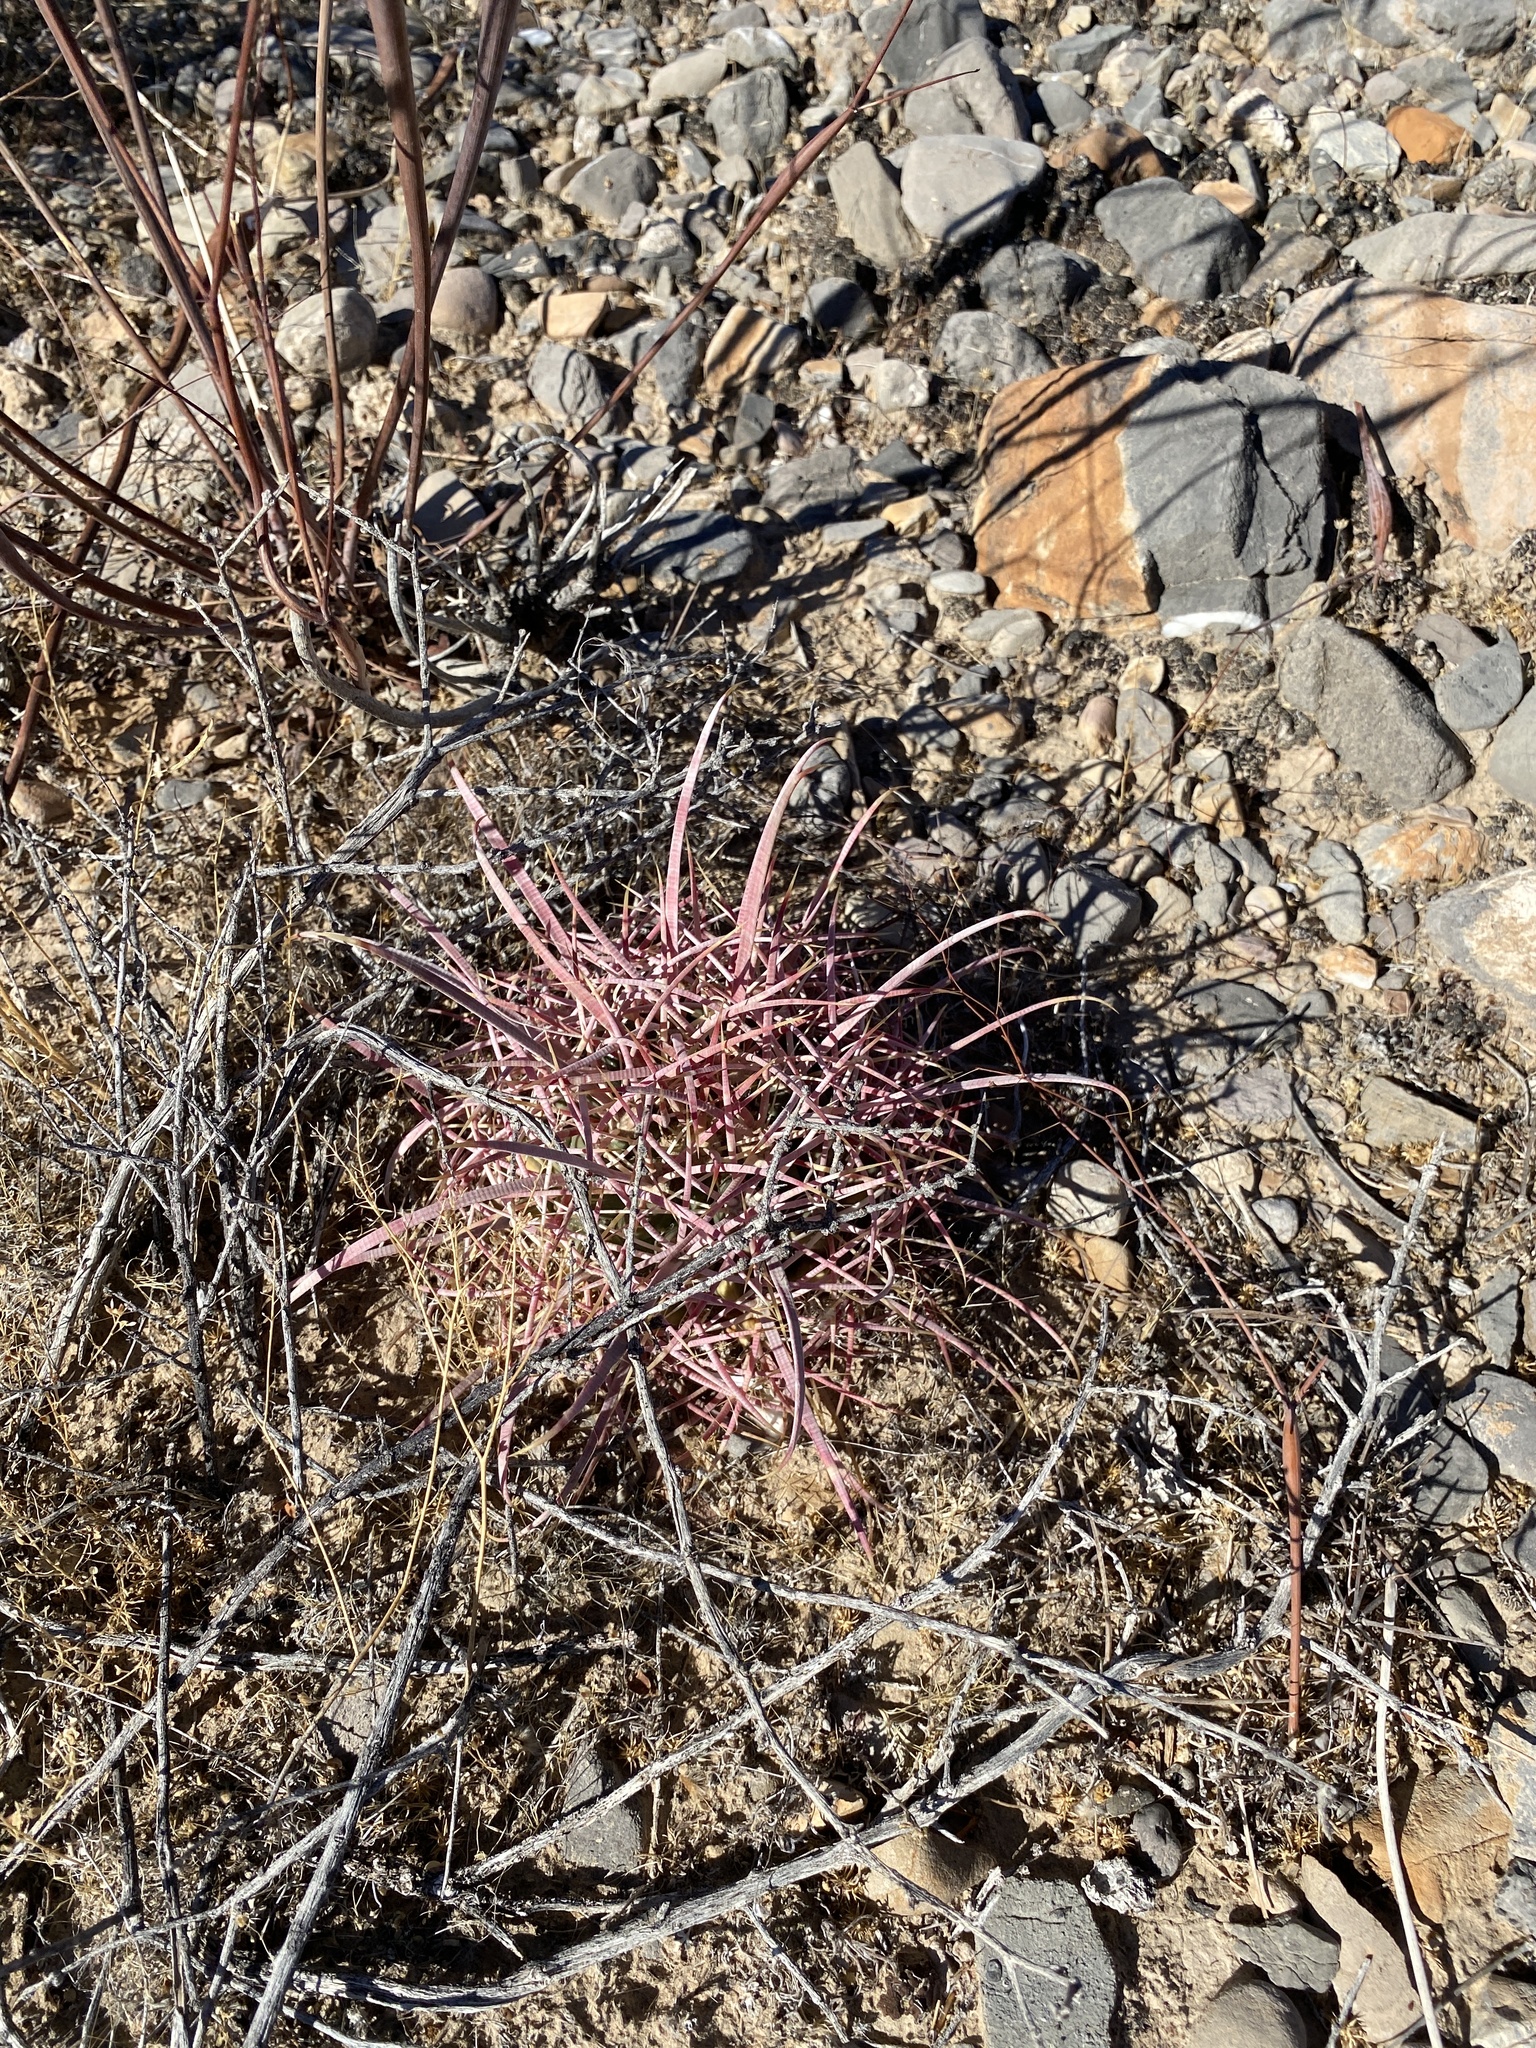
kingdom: Plantae
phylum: Tracheophyta
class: Magnoliopsida
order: Caryophyllales
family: Cactaceae
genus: Ferocactus
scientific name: Ferocactus cylindraceus
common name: California barrel cactus
